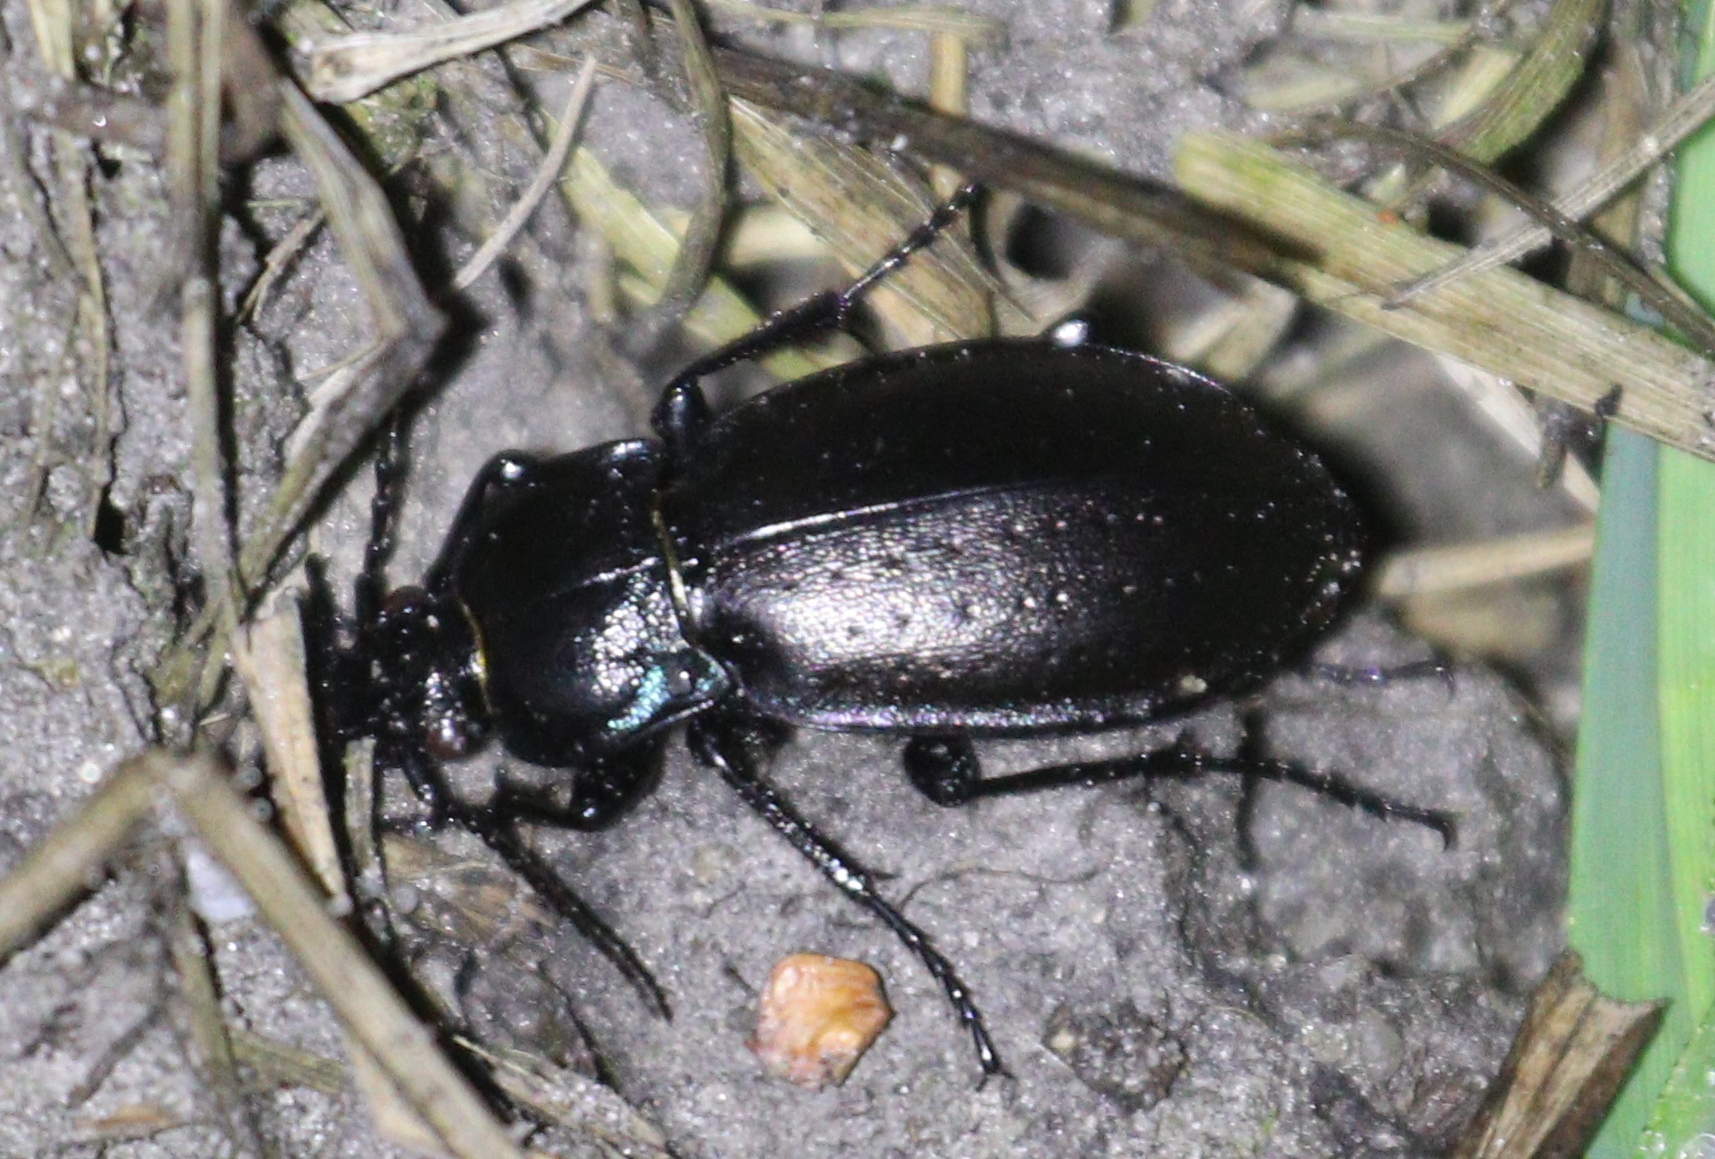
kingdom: Animalia
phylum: Arthropoda
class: Insecta
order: Coleoptera
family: Carabidae
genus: Carabus
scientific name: Carabus nemoralis
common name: European ground beetle
